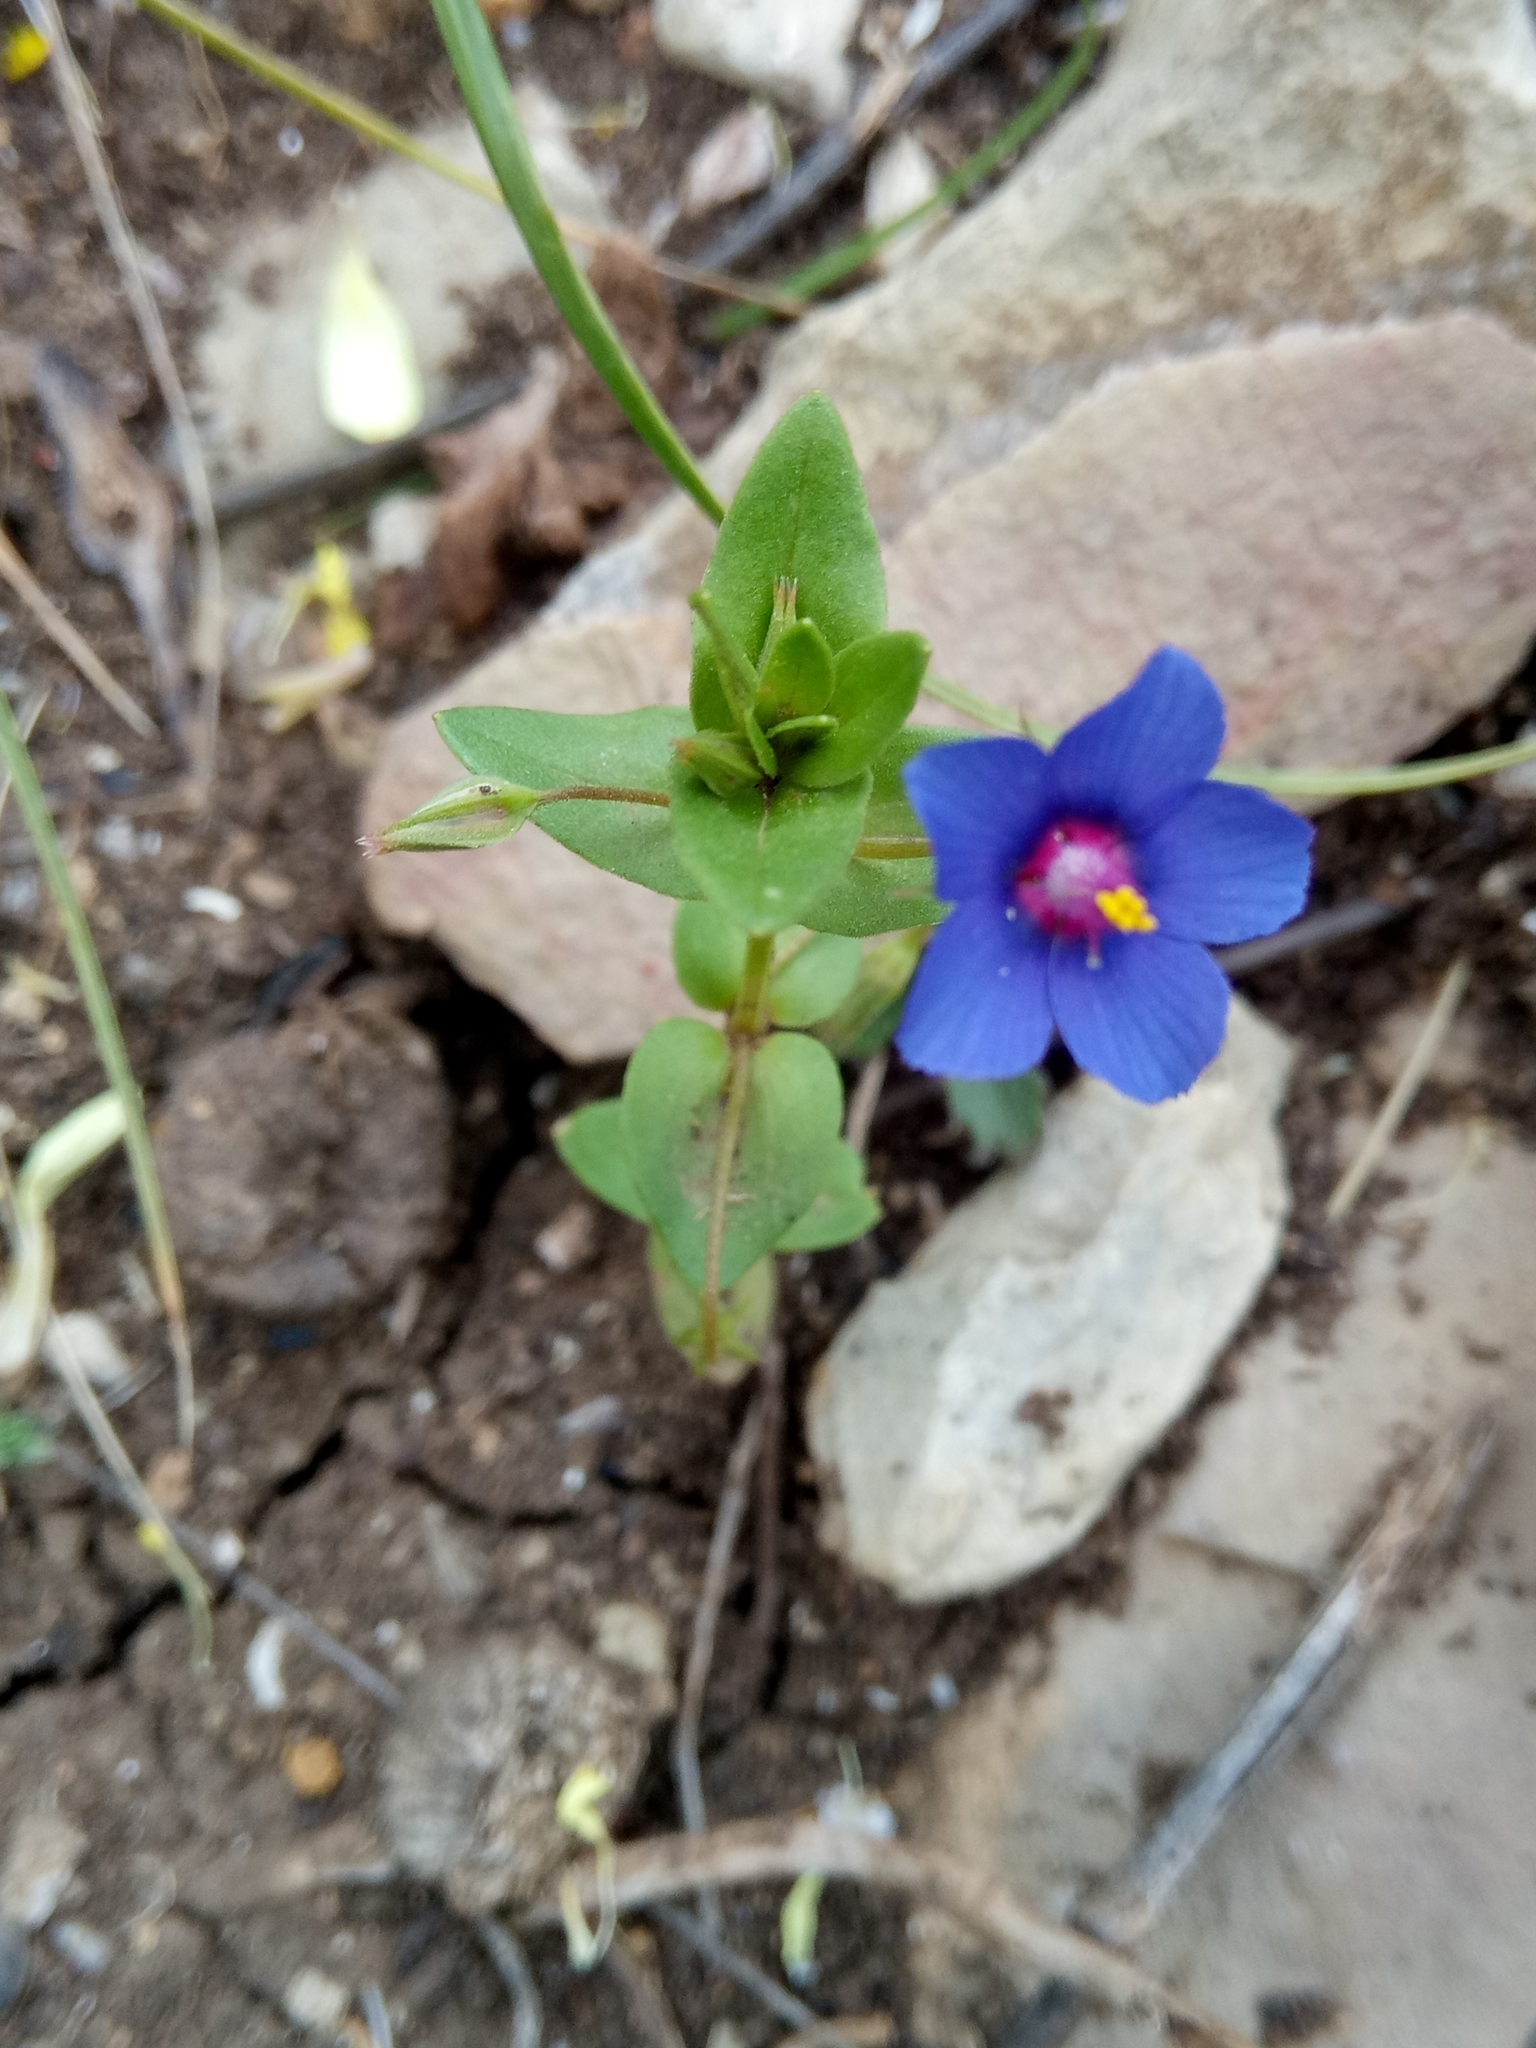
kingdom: Plantae
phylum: Tracheophyta
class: Magnoliopsida
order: Ericales
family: Primulaceae
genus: Lysimachia
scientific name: Lysimachia loeflingii
